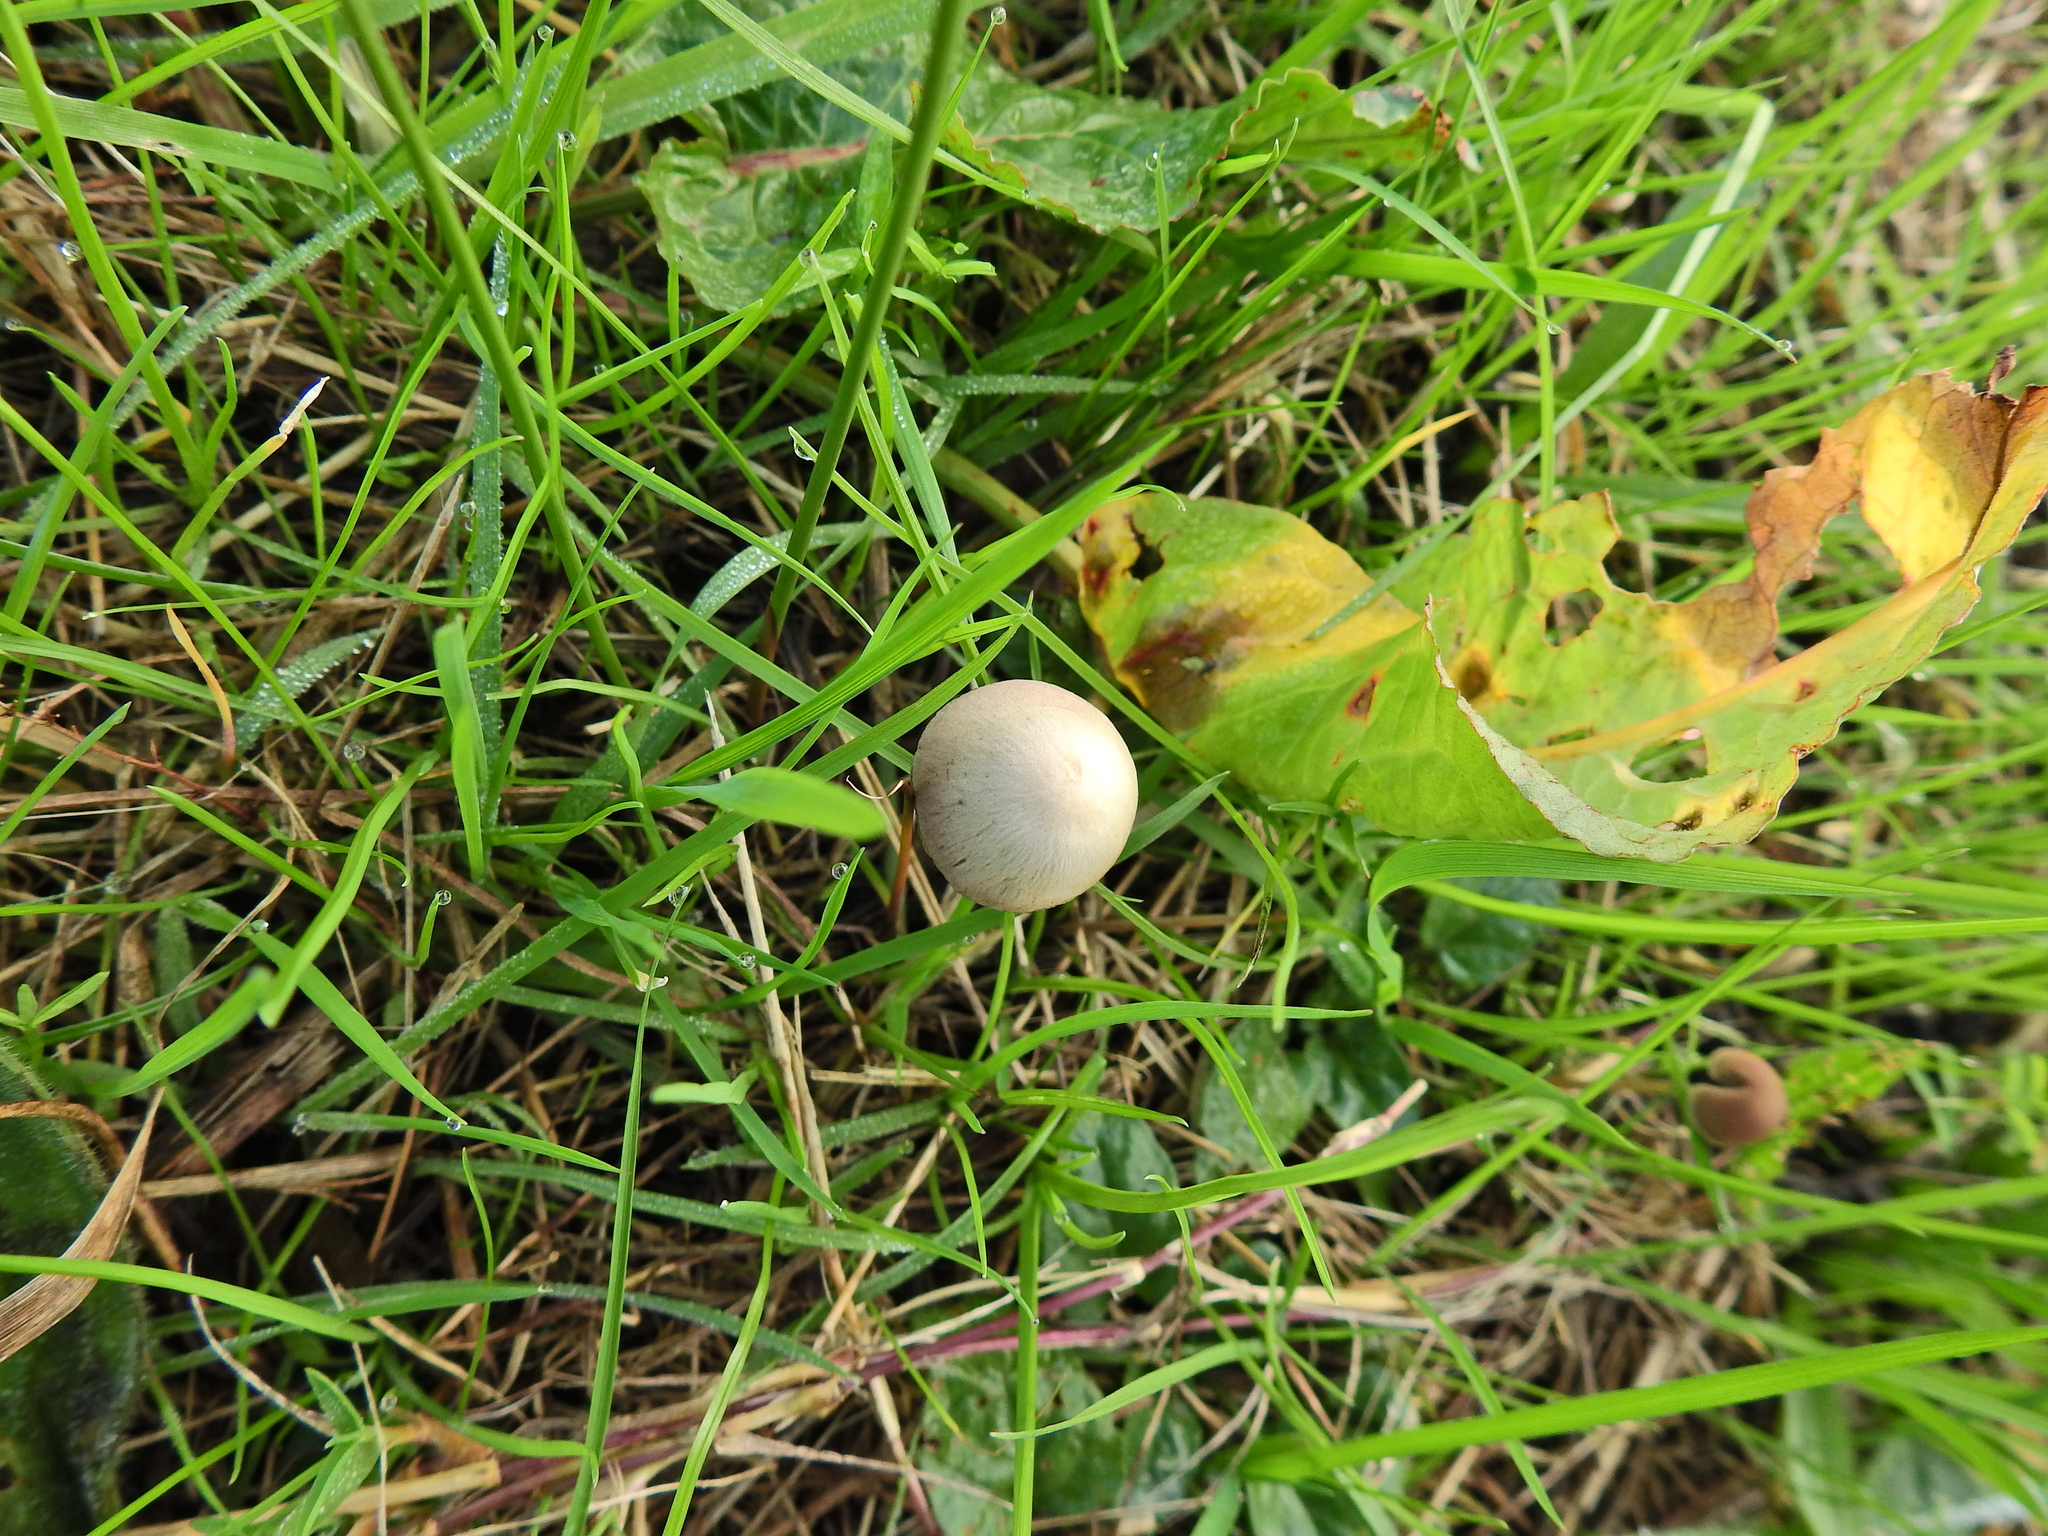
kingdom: Fungi
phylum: Basidiomycota
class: Agaricomycetes
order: Agaricales
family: Psathyrellaceae
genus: Psathyrella
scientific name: Psathyrella
